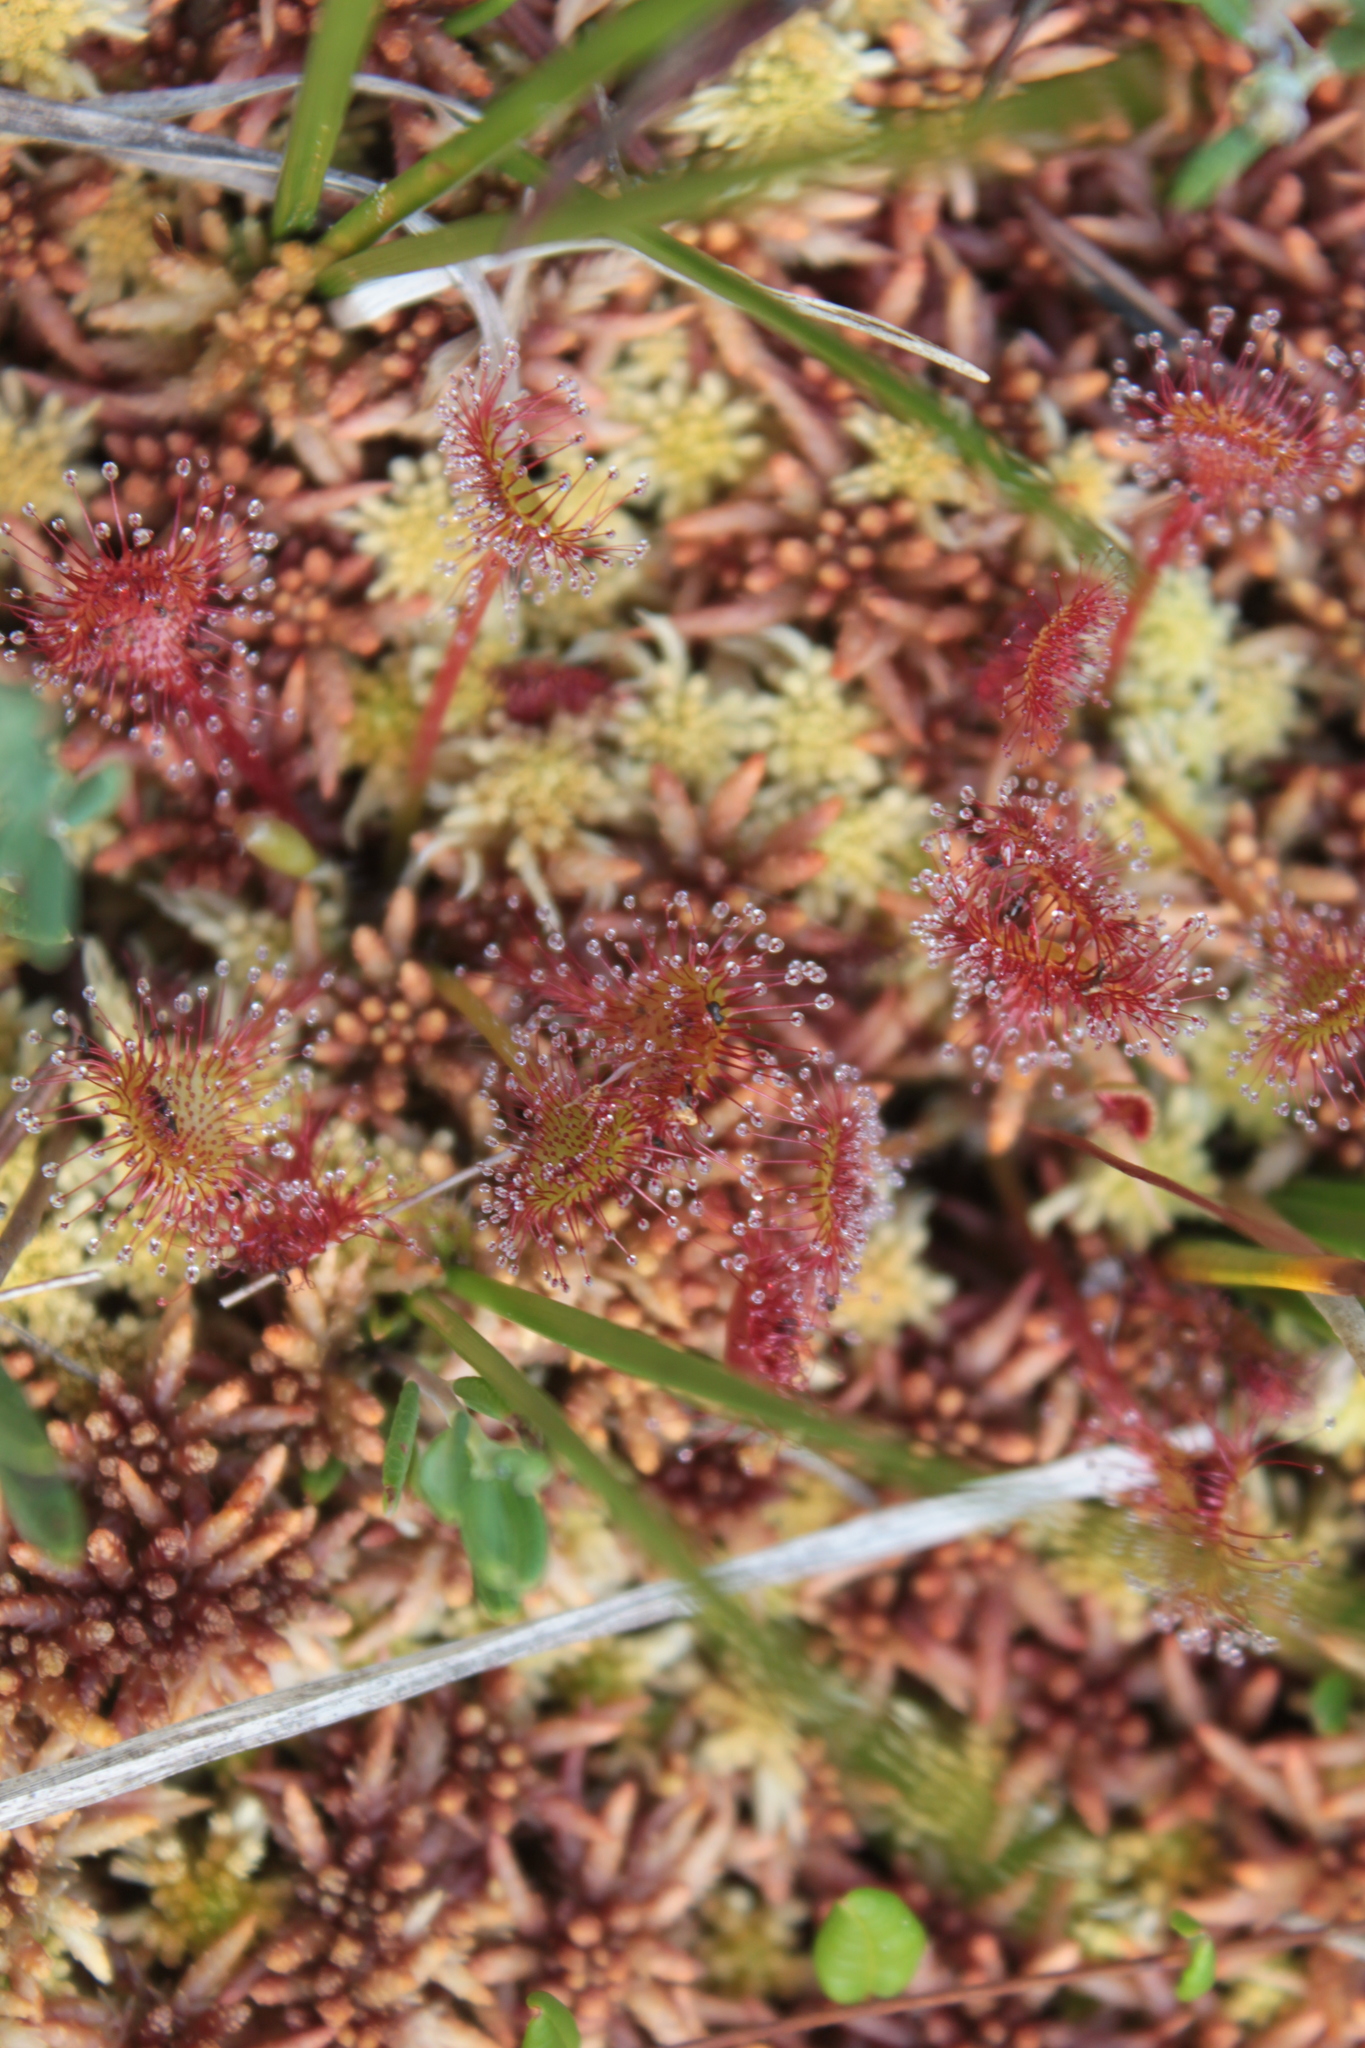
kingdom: Plantae
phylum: Tracheophyta
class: Magnoliopsida
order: Caryophyllales
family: Droseraceae
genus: Drosera
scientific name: Drosera rotundifolia
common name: Round-leaved sundew
